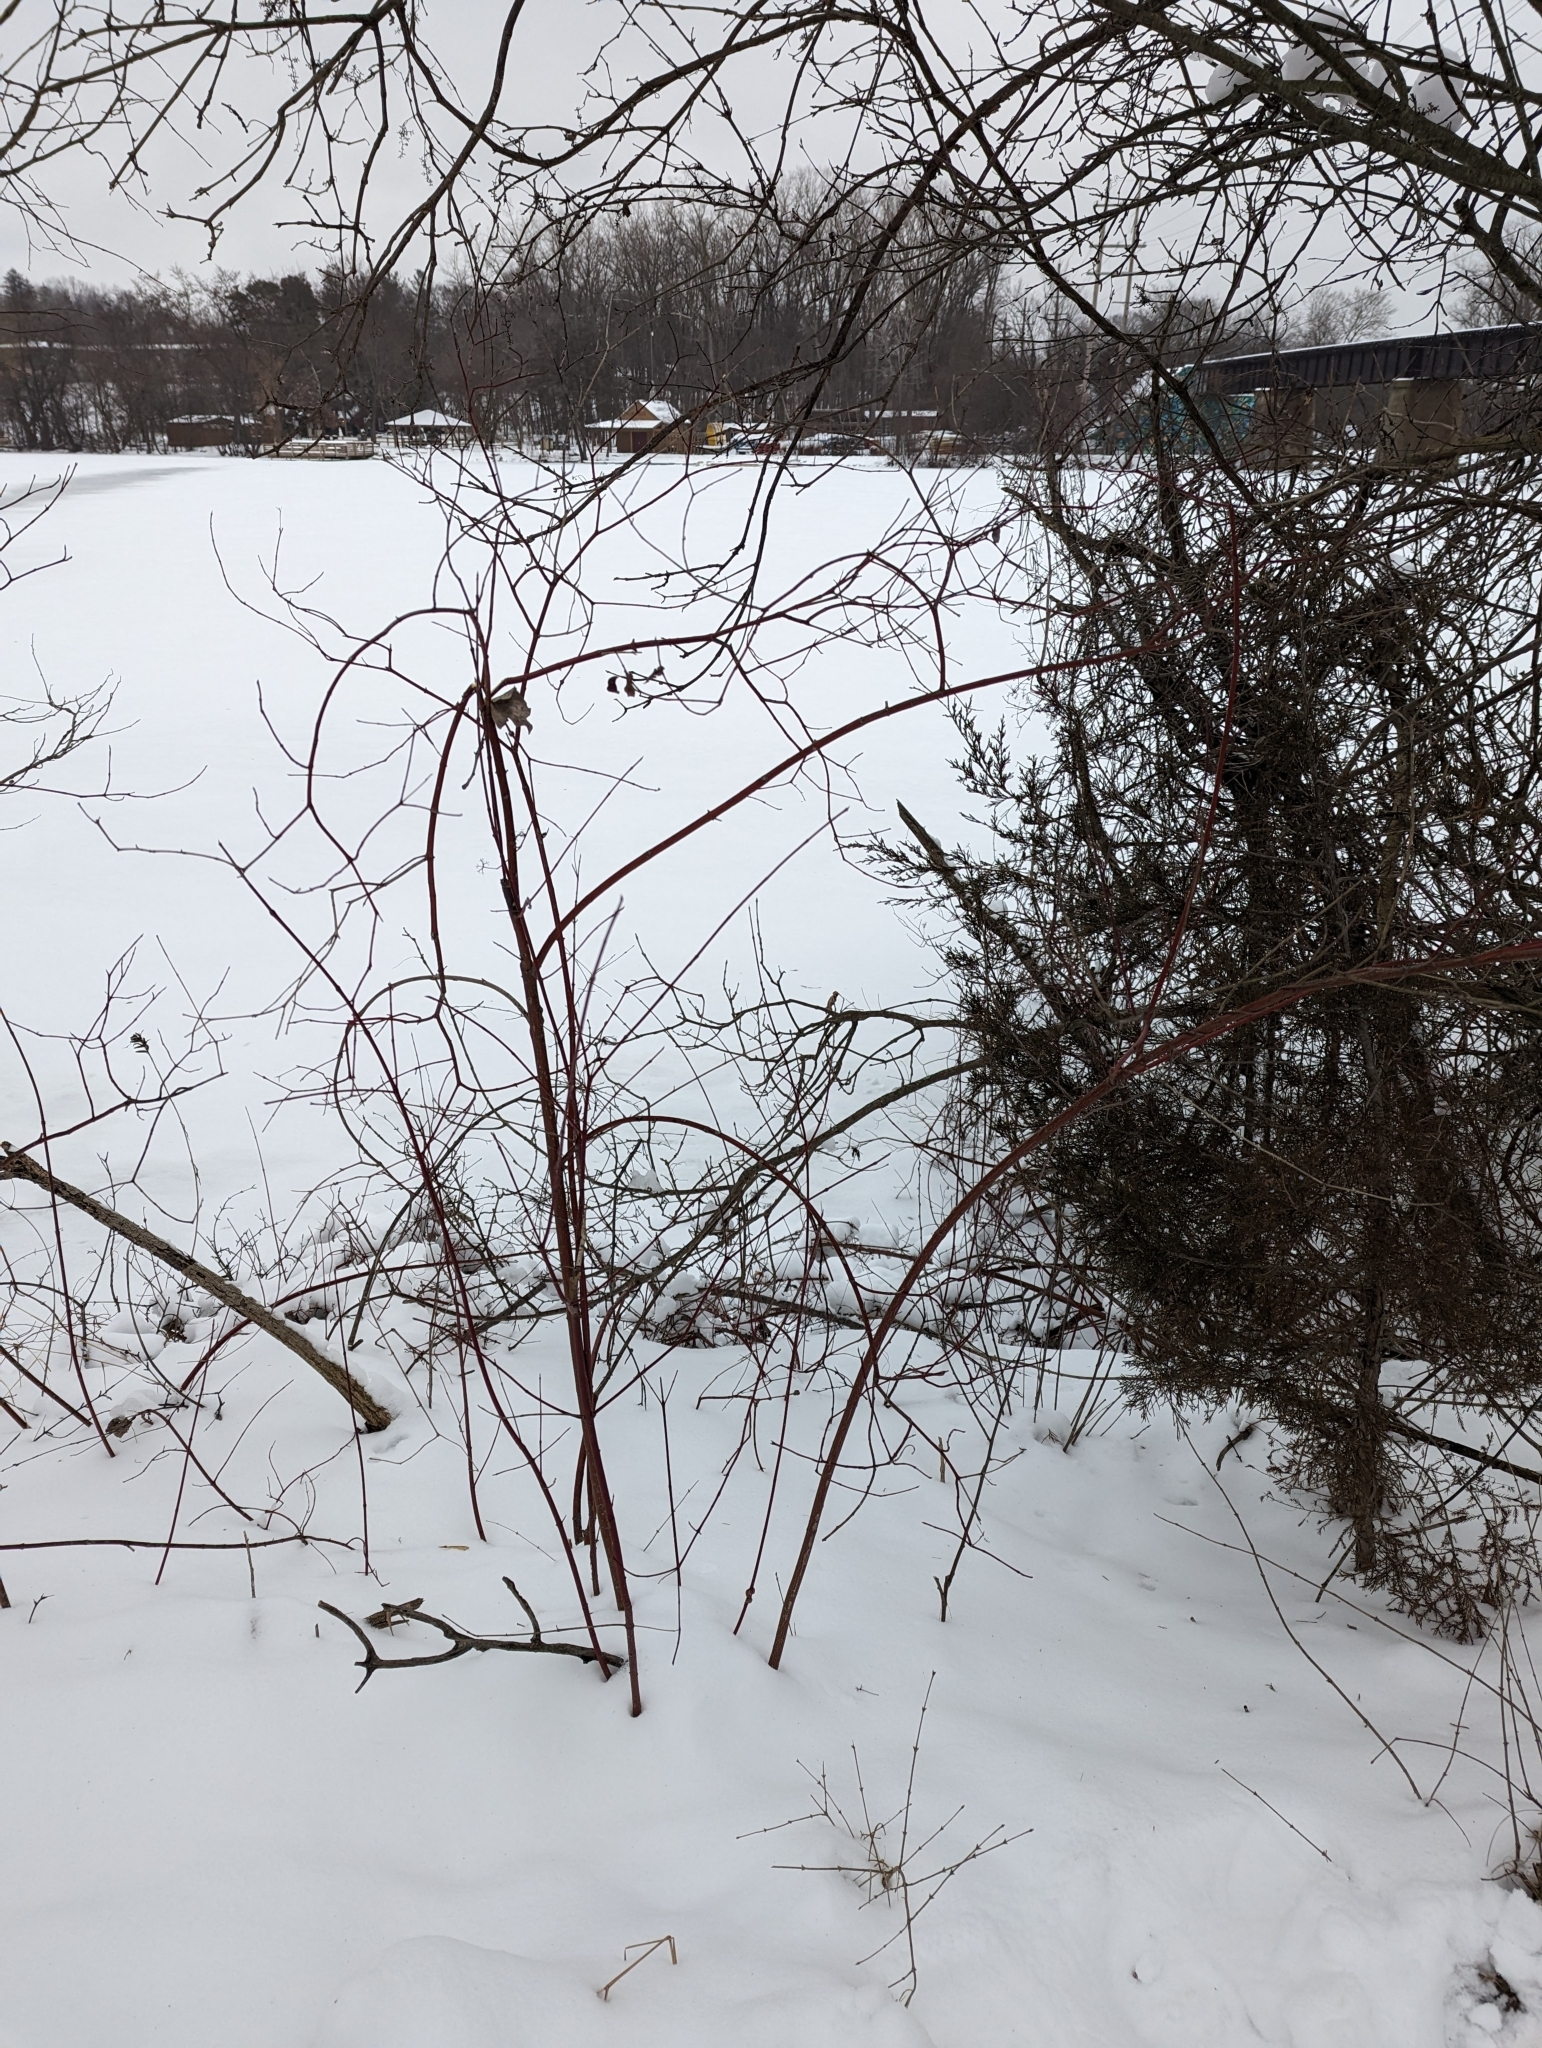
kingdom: Plantae
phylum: Tracheophyta
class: Magnoliopsida
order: Cornales
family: Cornaceae
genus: Cornus
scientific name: Cornus sericea
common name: Red-osier dogwood
